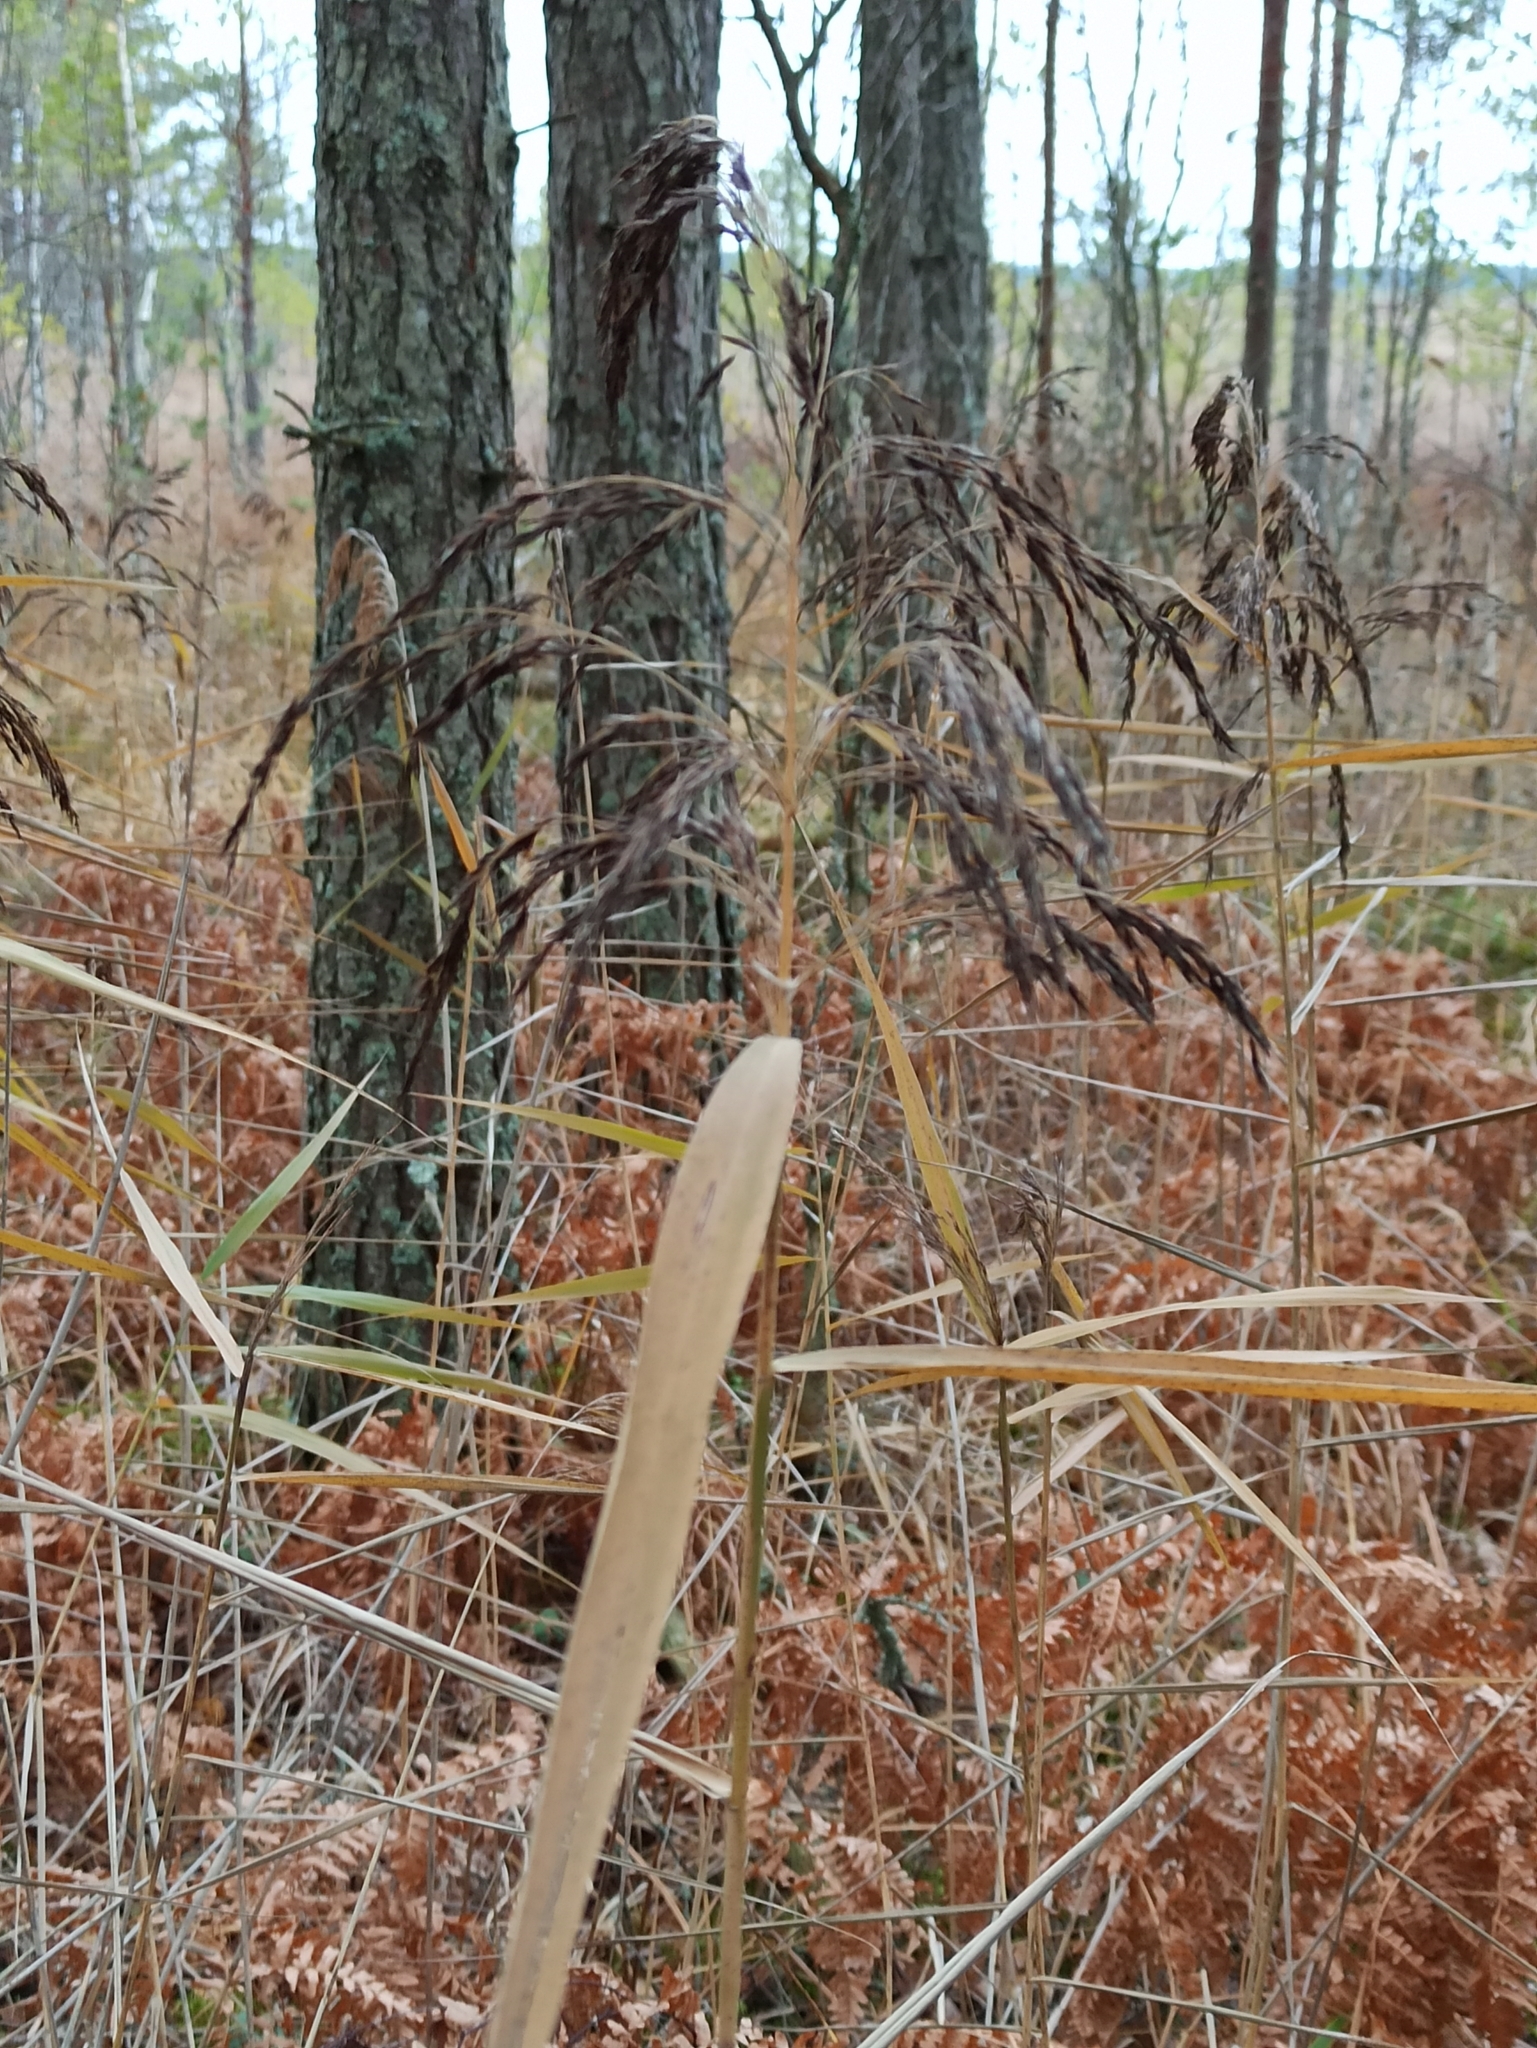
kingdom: Plantae
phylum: Tracheophyta
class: Liliopsida
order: Poales
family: Poaceae
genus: Phragmites
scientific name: Phragmites australis
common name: Common reed
